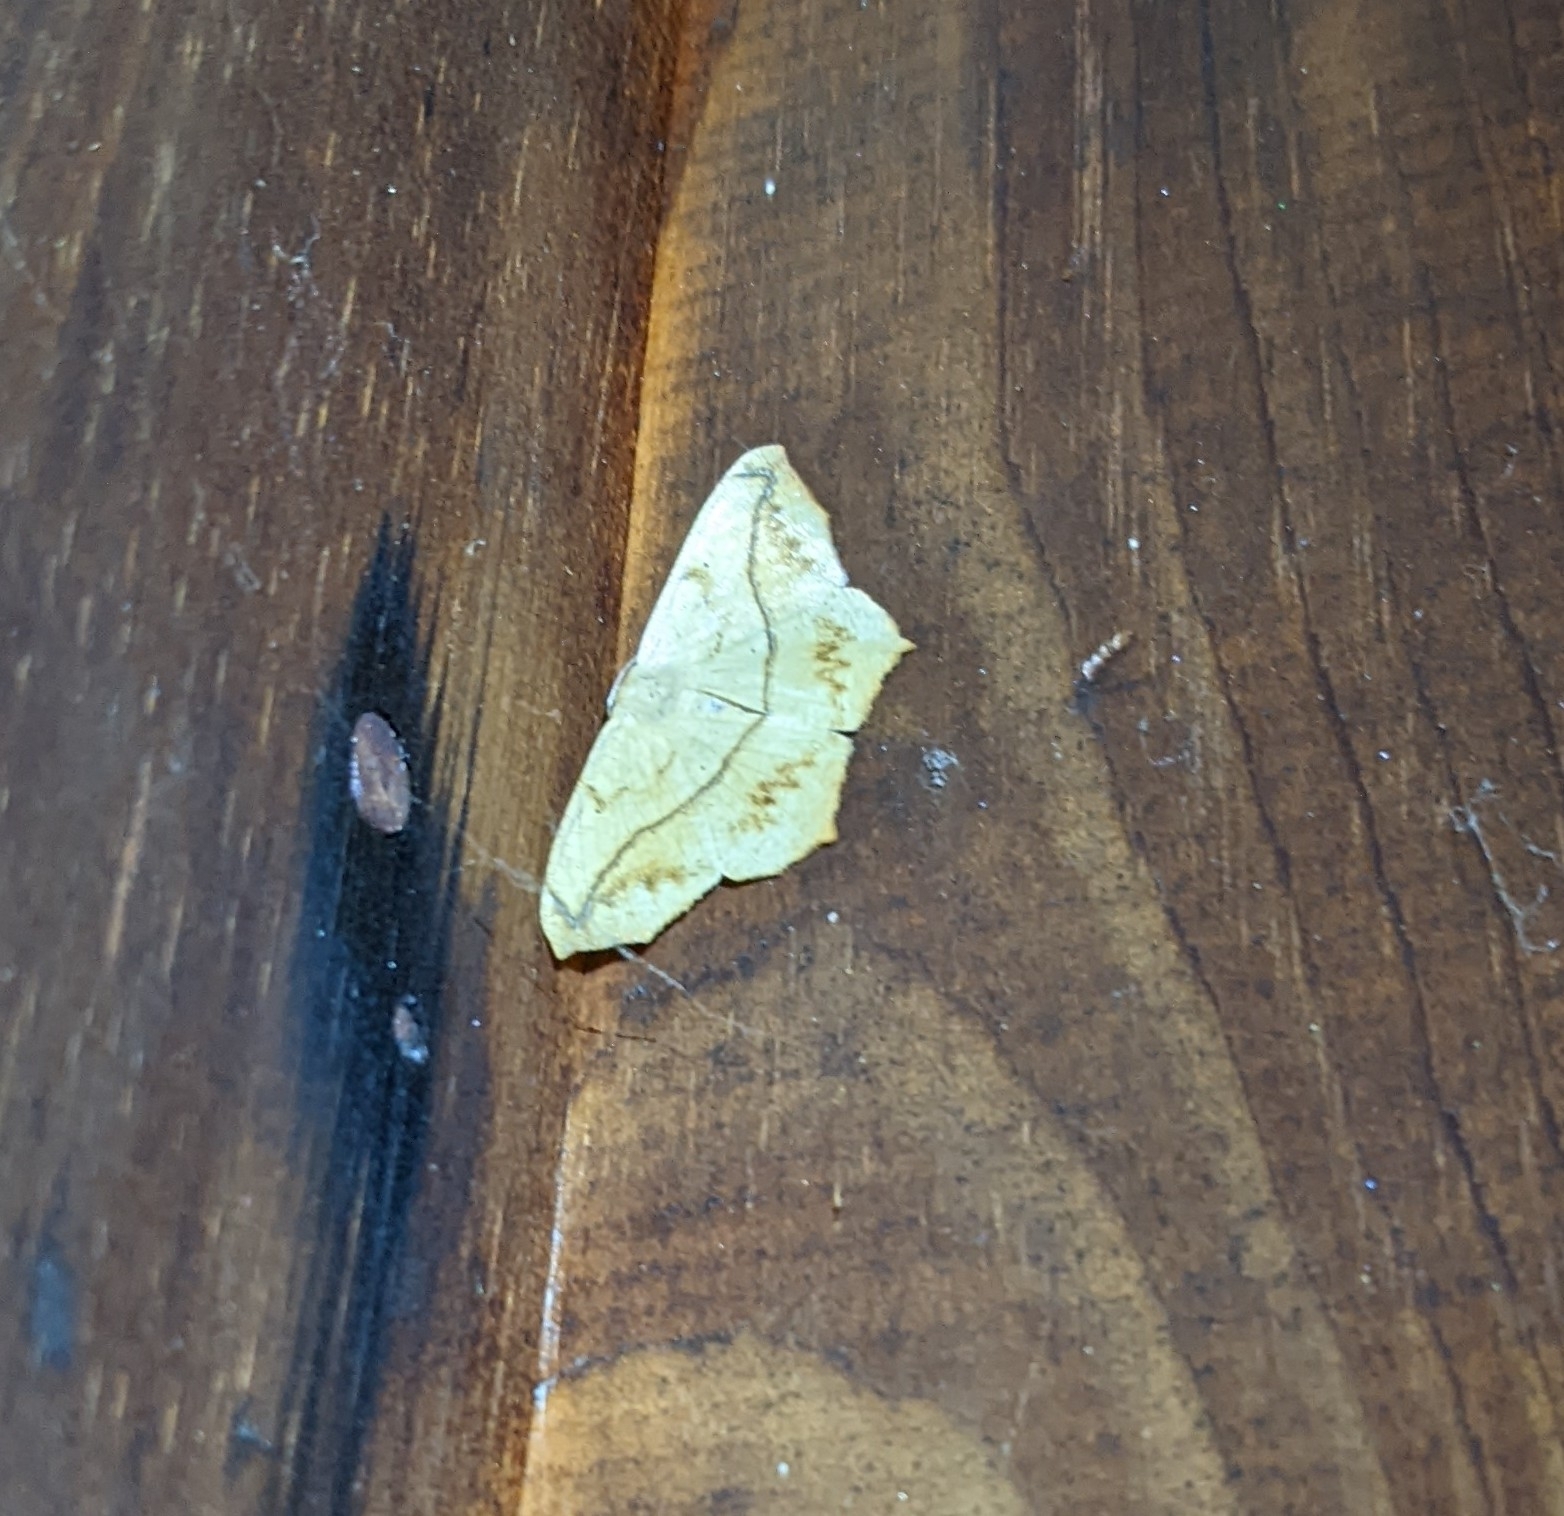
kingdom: Animalia
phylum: Arthropoda
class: Insecta
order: Lepidoptera
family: Geometridae
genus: Prochoerodes
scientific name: Prochoerodes lineola
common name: Large maple spanworm
